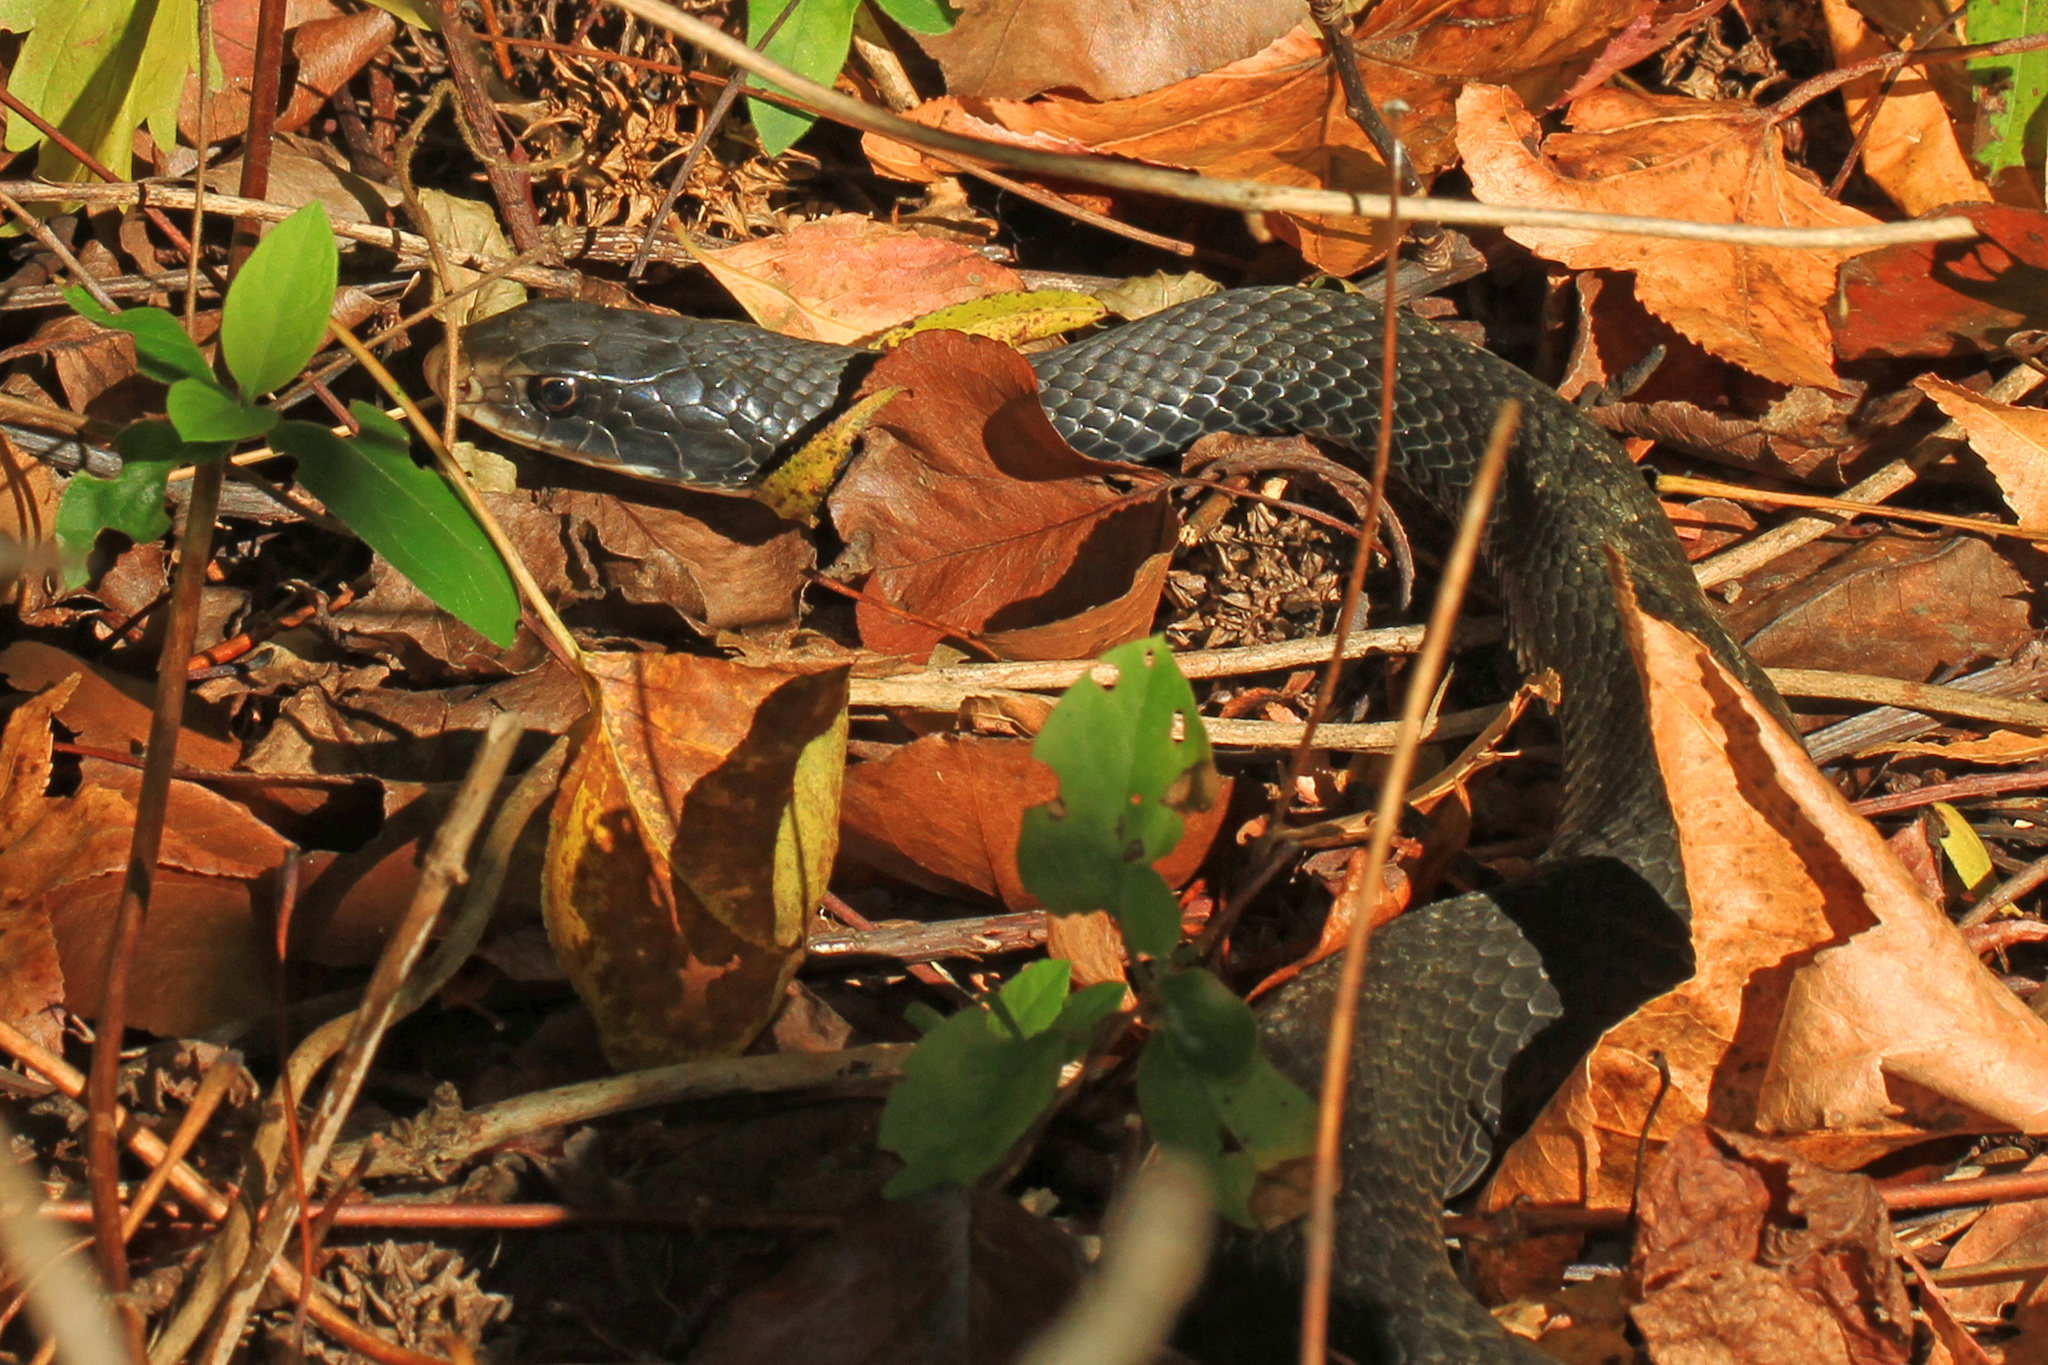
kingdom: Animalia
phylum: Chordata
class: Squamata
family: Colubridae
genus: Coluber
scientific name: Coluber constrictor
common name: Eastern racer
